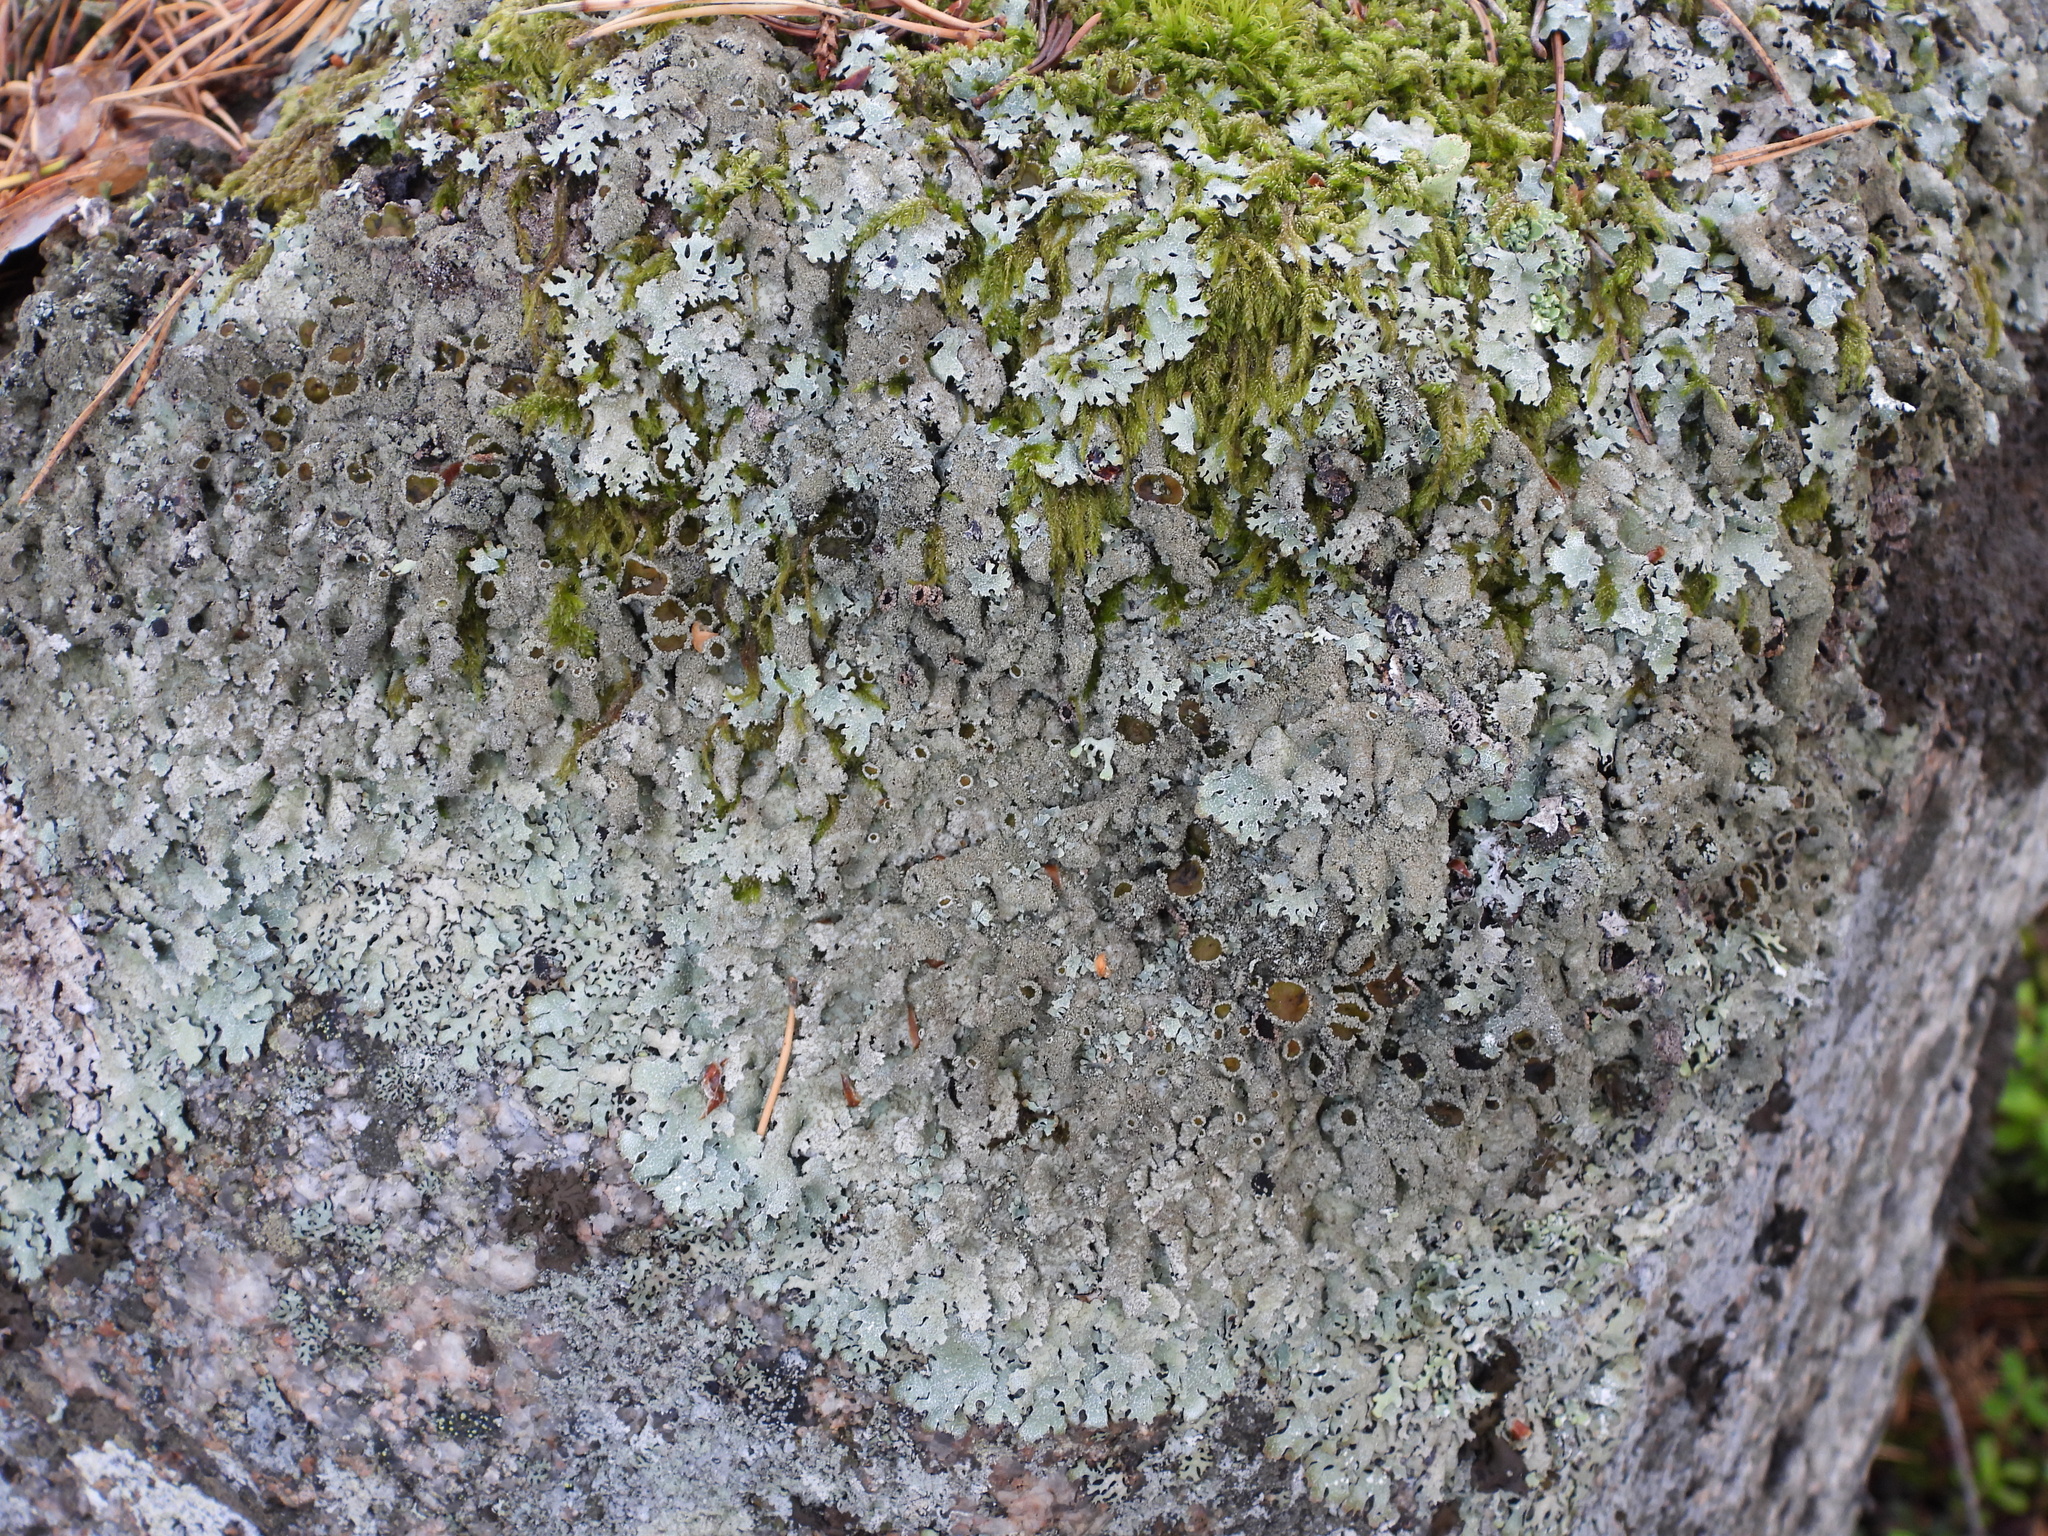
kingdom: Fungi
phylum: Ascomycota
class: Lecanoromycetes
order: Lecanorales
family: Parmeliaceae
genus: Parmelia
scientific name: Parmelia saxatilis
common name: Salted shield lichen
